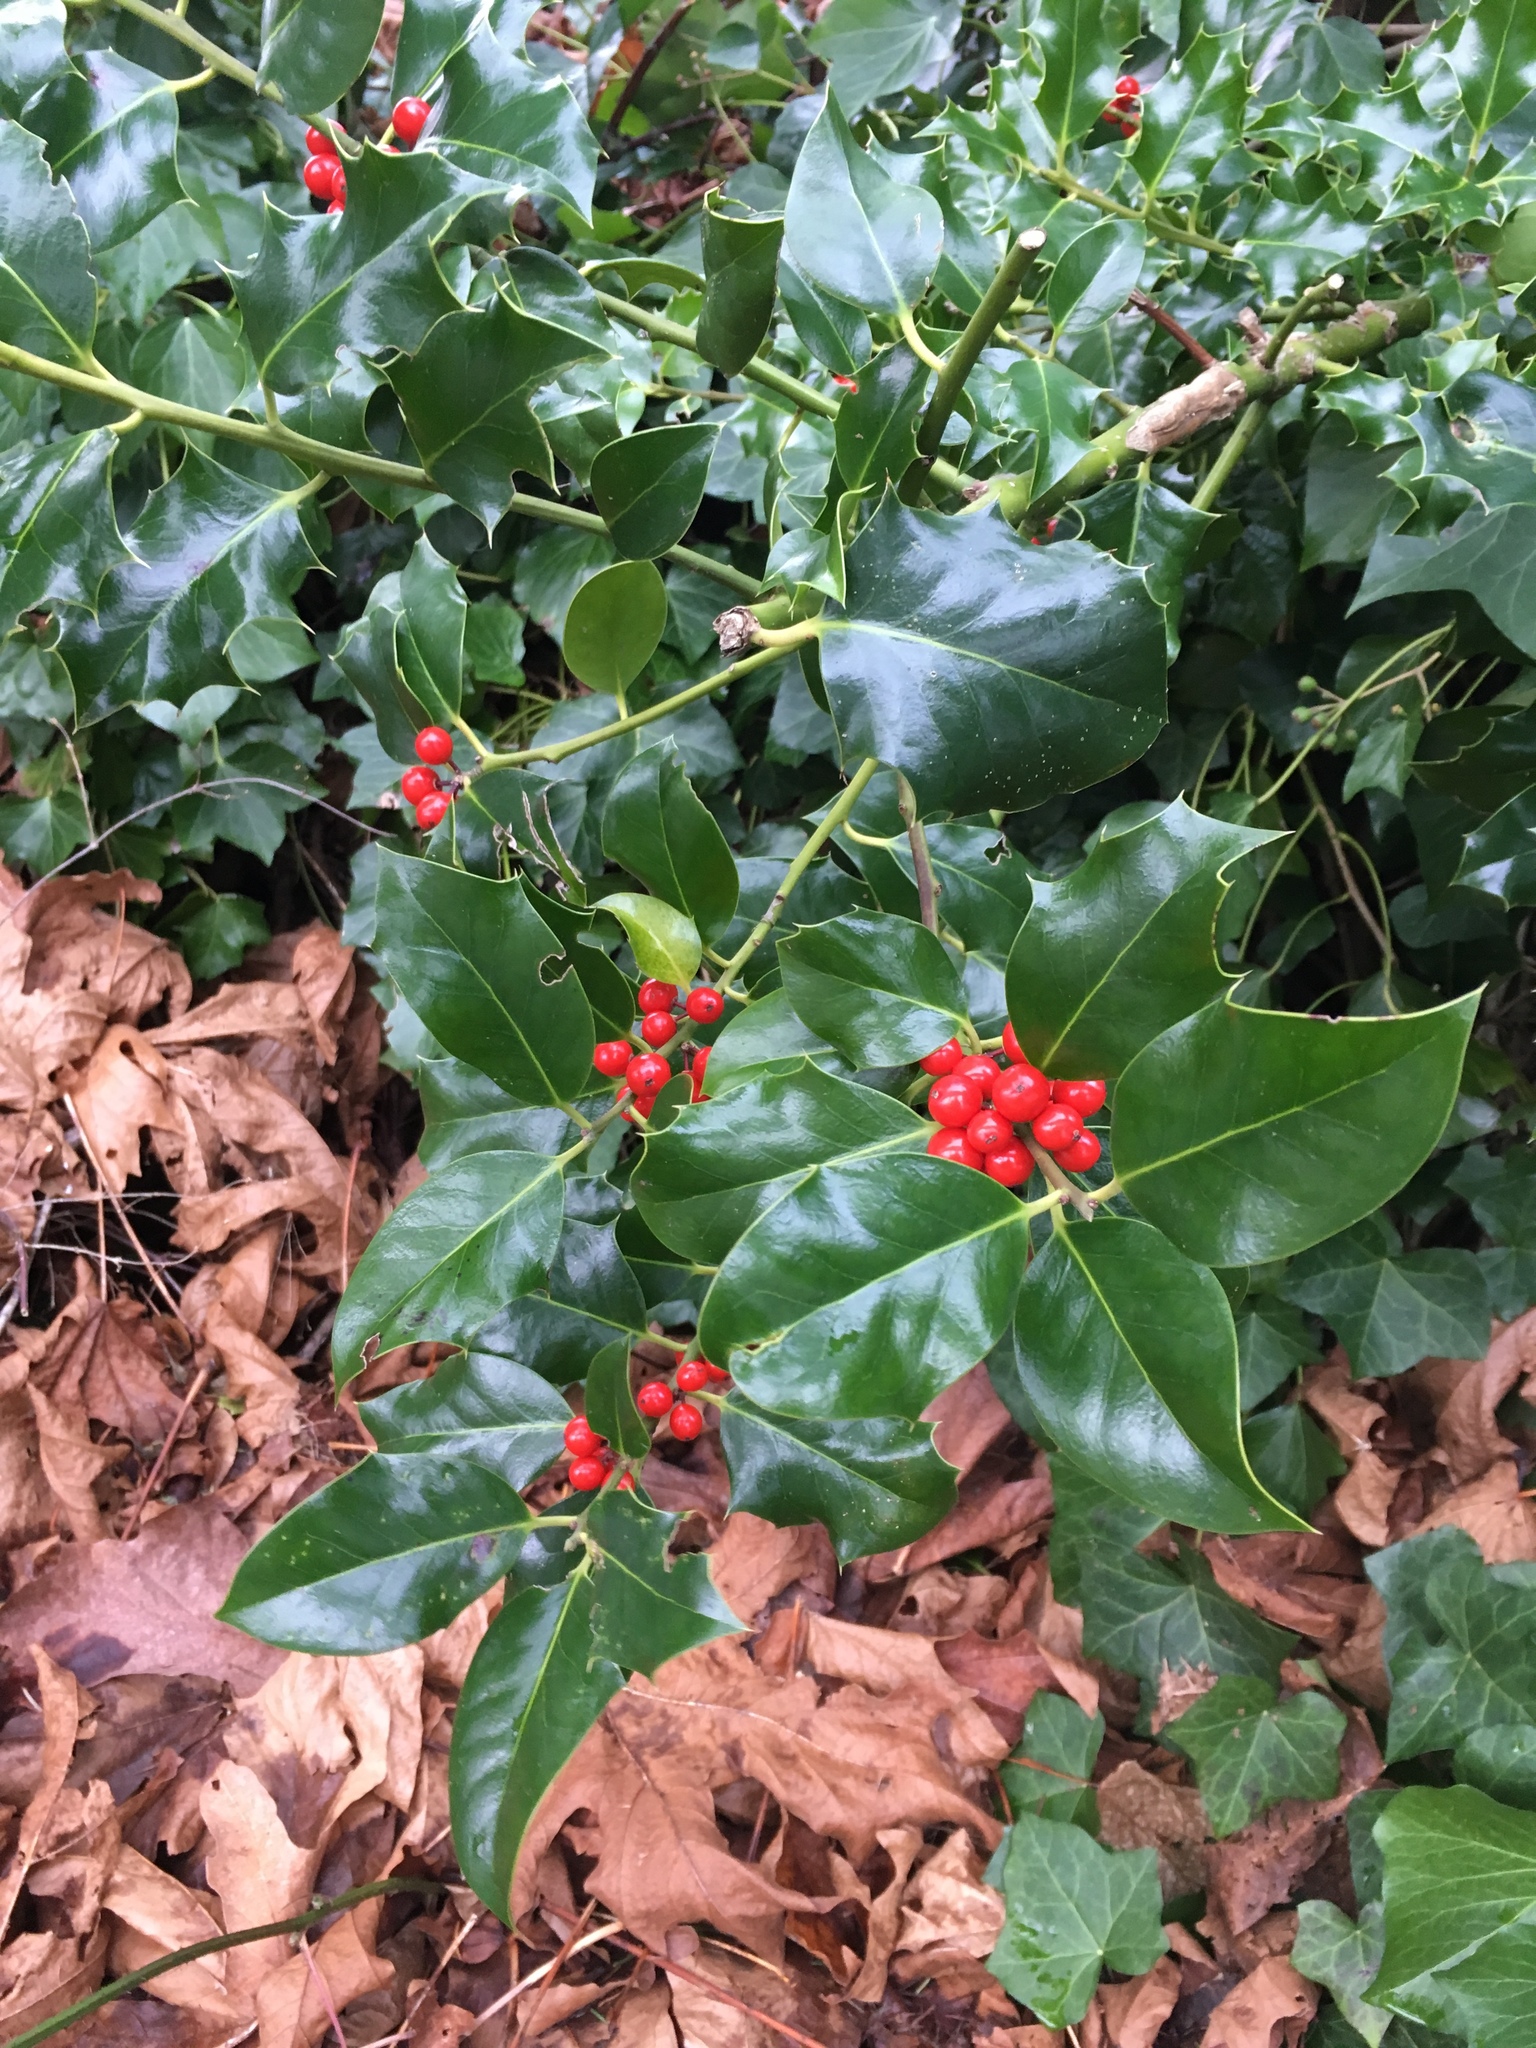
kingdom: Plantae
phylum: Tracheophyta
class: Magnoliopsida
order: Aquifoliales
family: Aquifoliaceae
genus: Ilex
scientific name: Ilex aquifolium
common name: English holly
